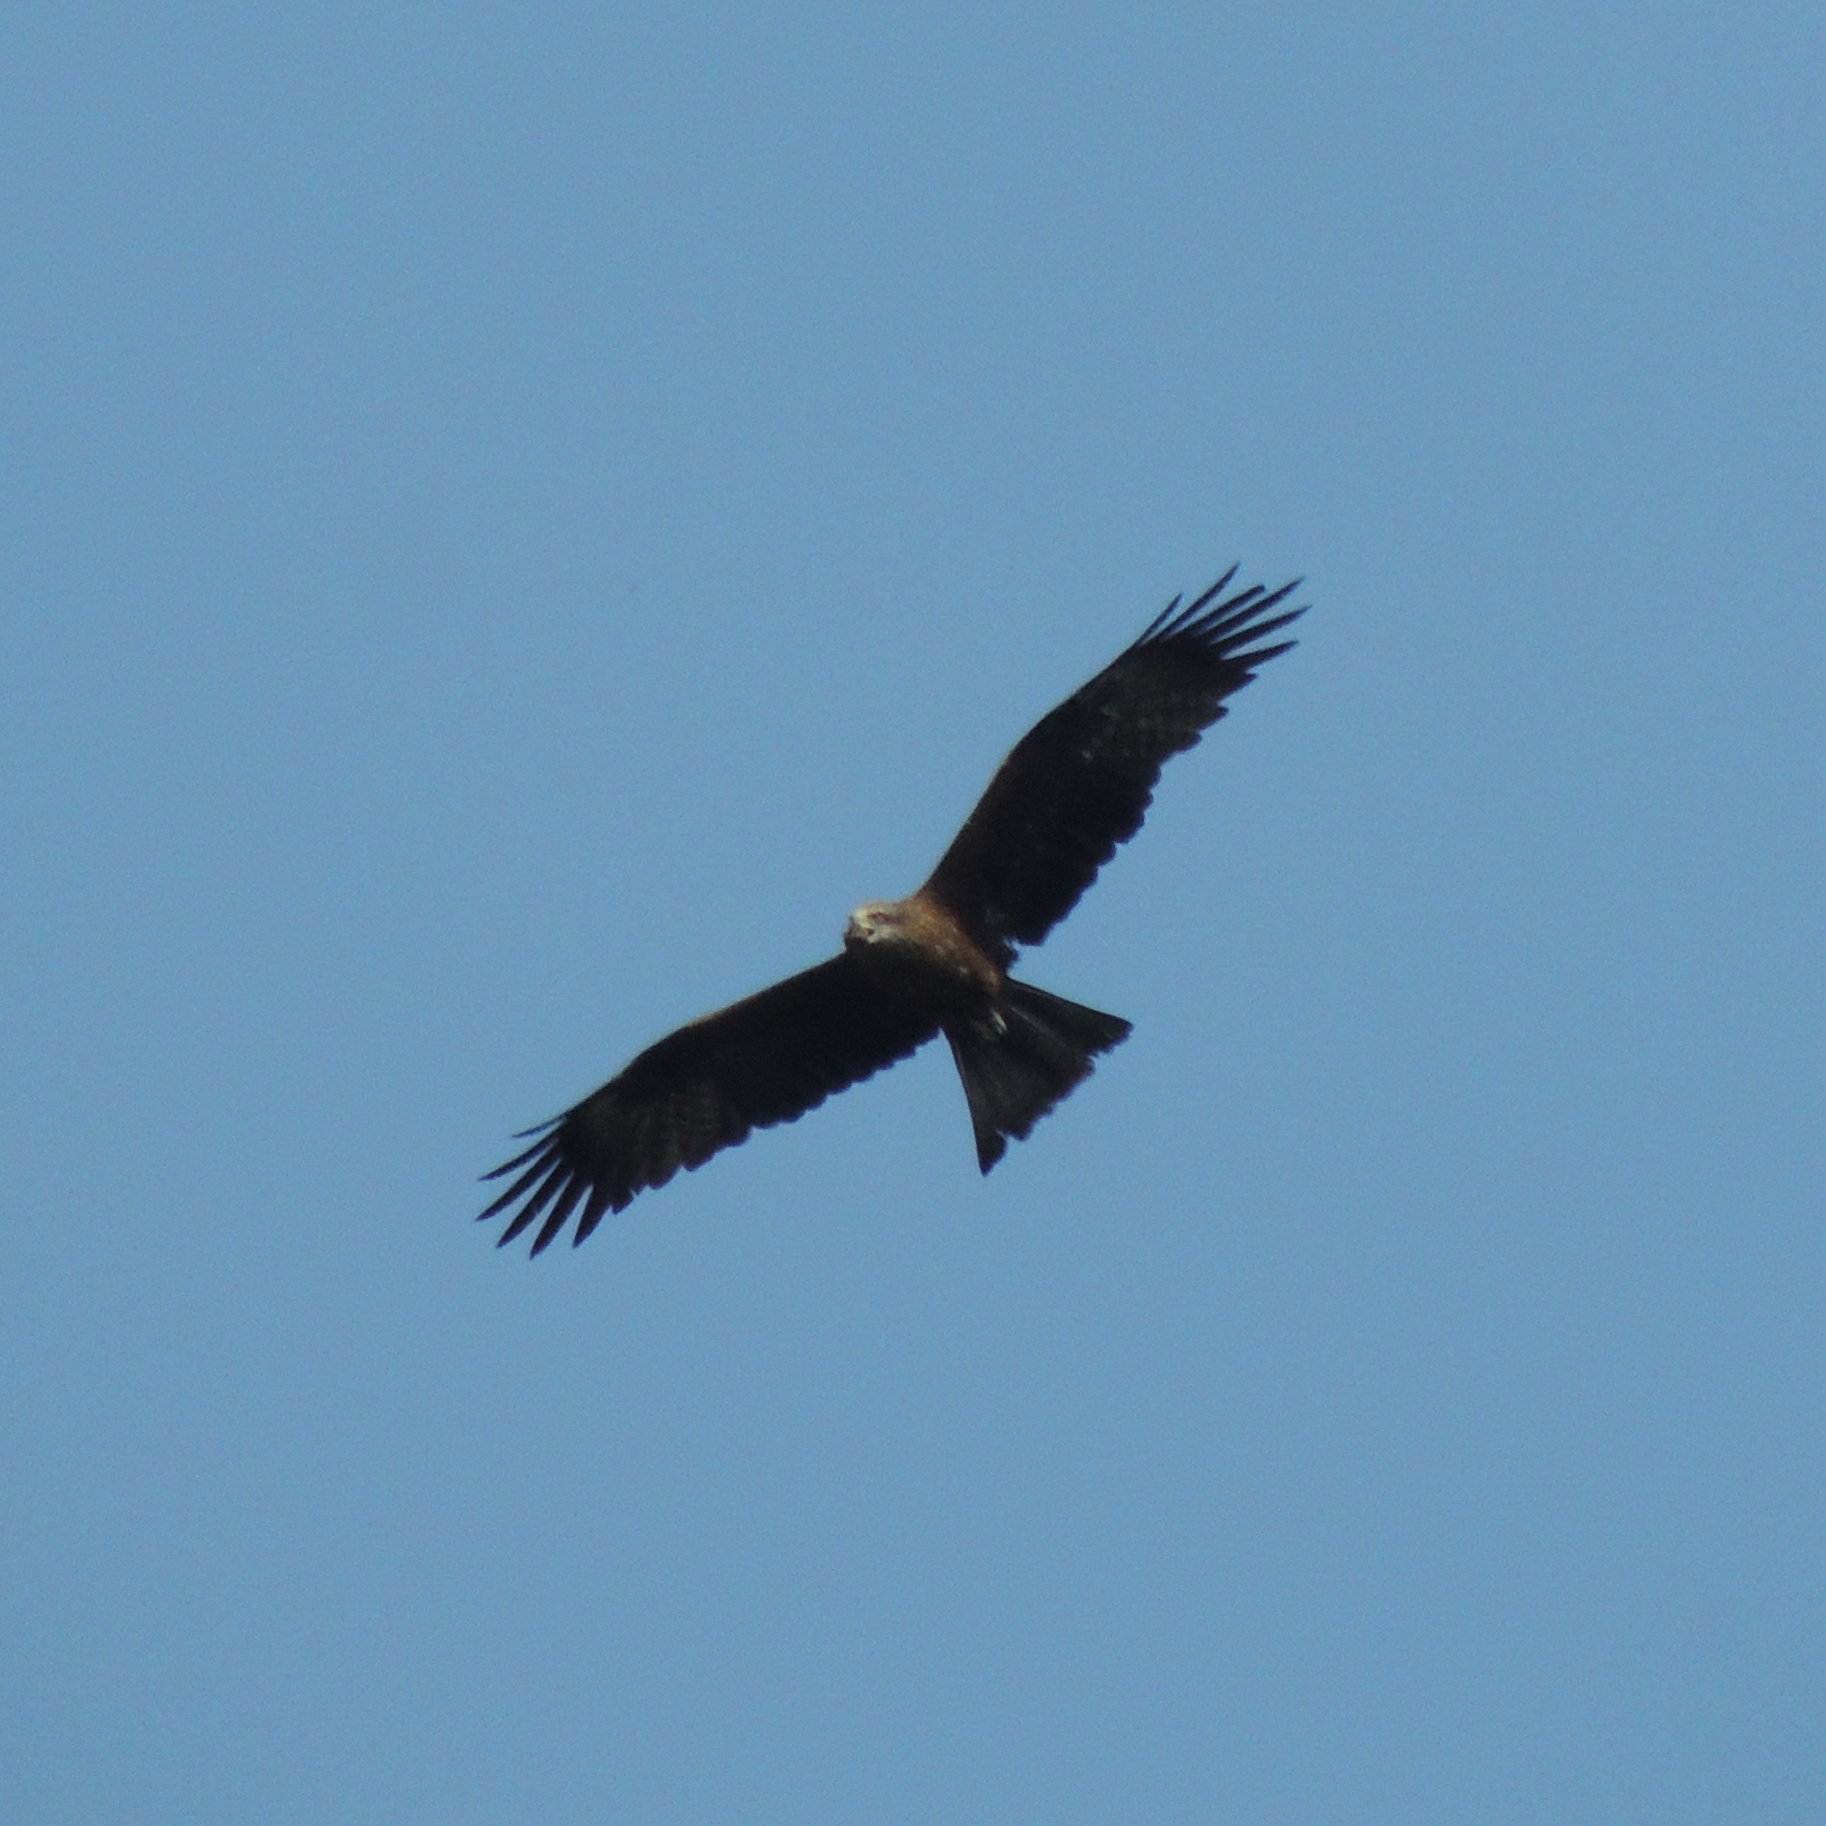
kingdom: Animalia
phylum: Chordata
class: Aves
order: Accipitriformes
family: Accipitridae
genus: Milvus
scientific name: Milvus migrans
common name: Black kite
